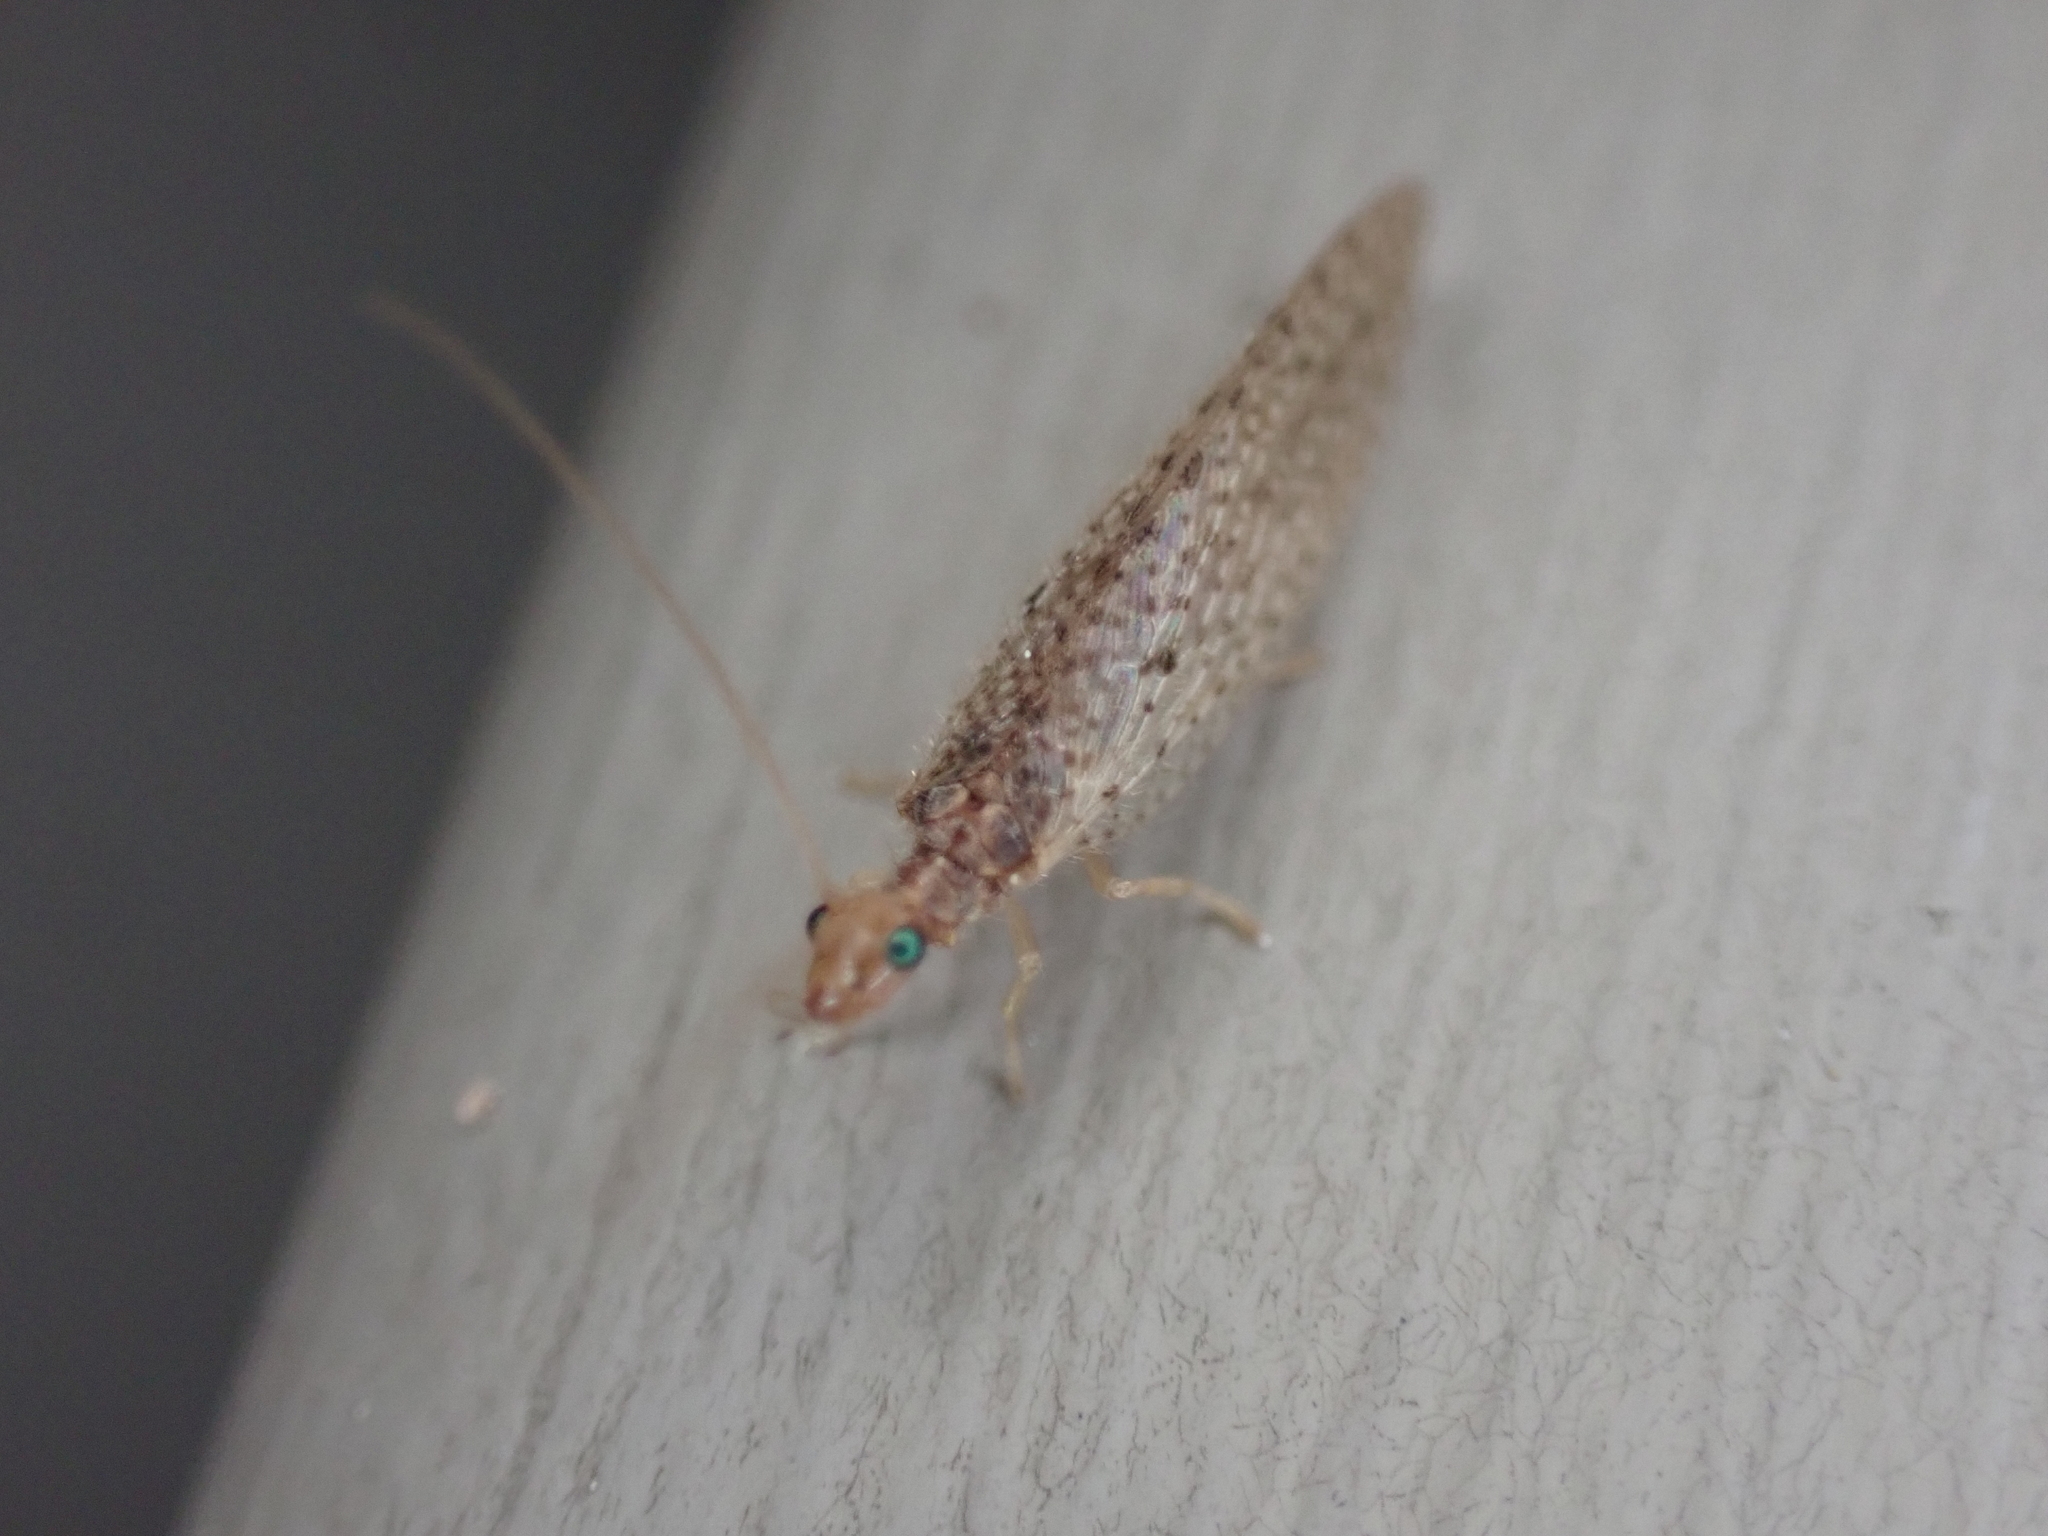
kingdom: Animalia
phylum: Arthropoda
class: Insecta
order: Neuroptera
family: Hemerobiidae
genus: Micromus
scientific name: Micromus subanticus
